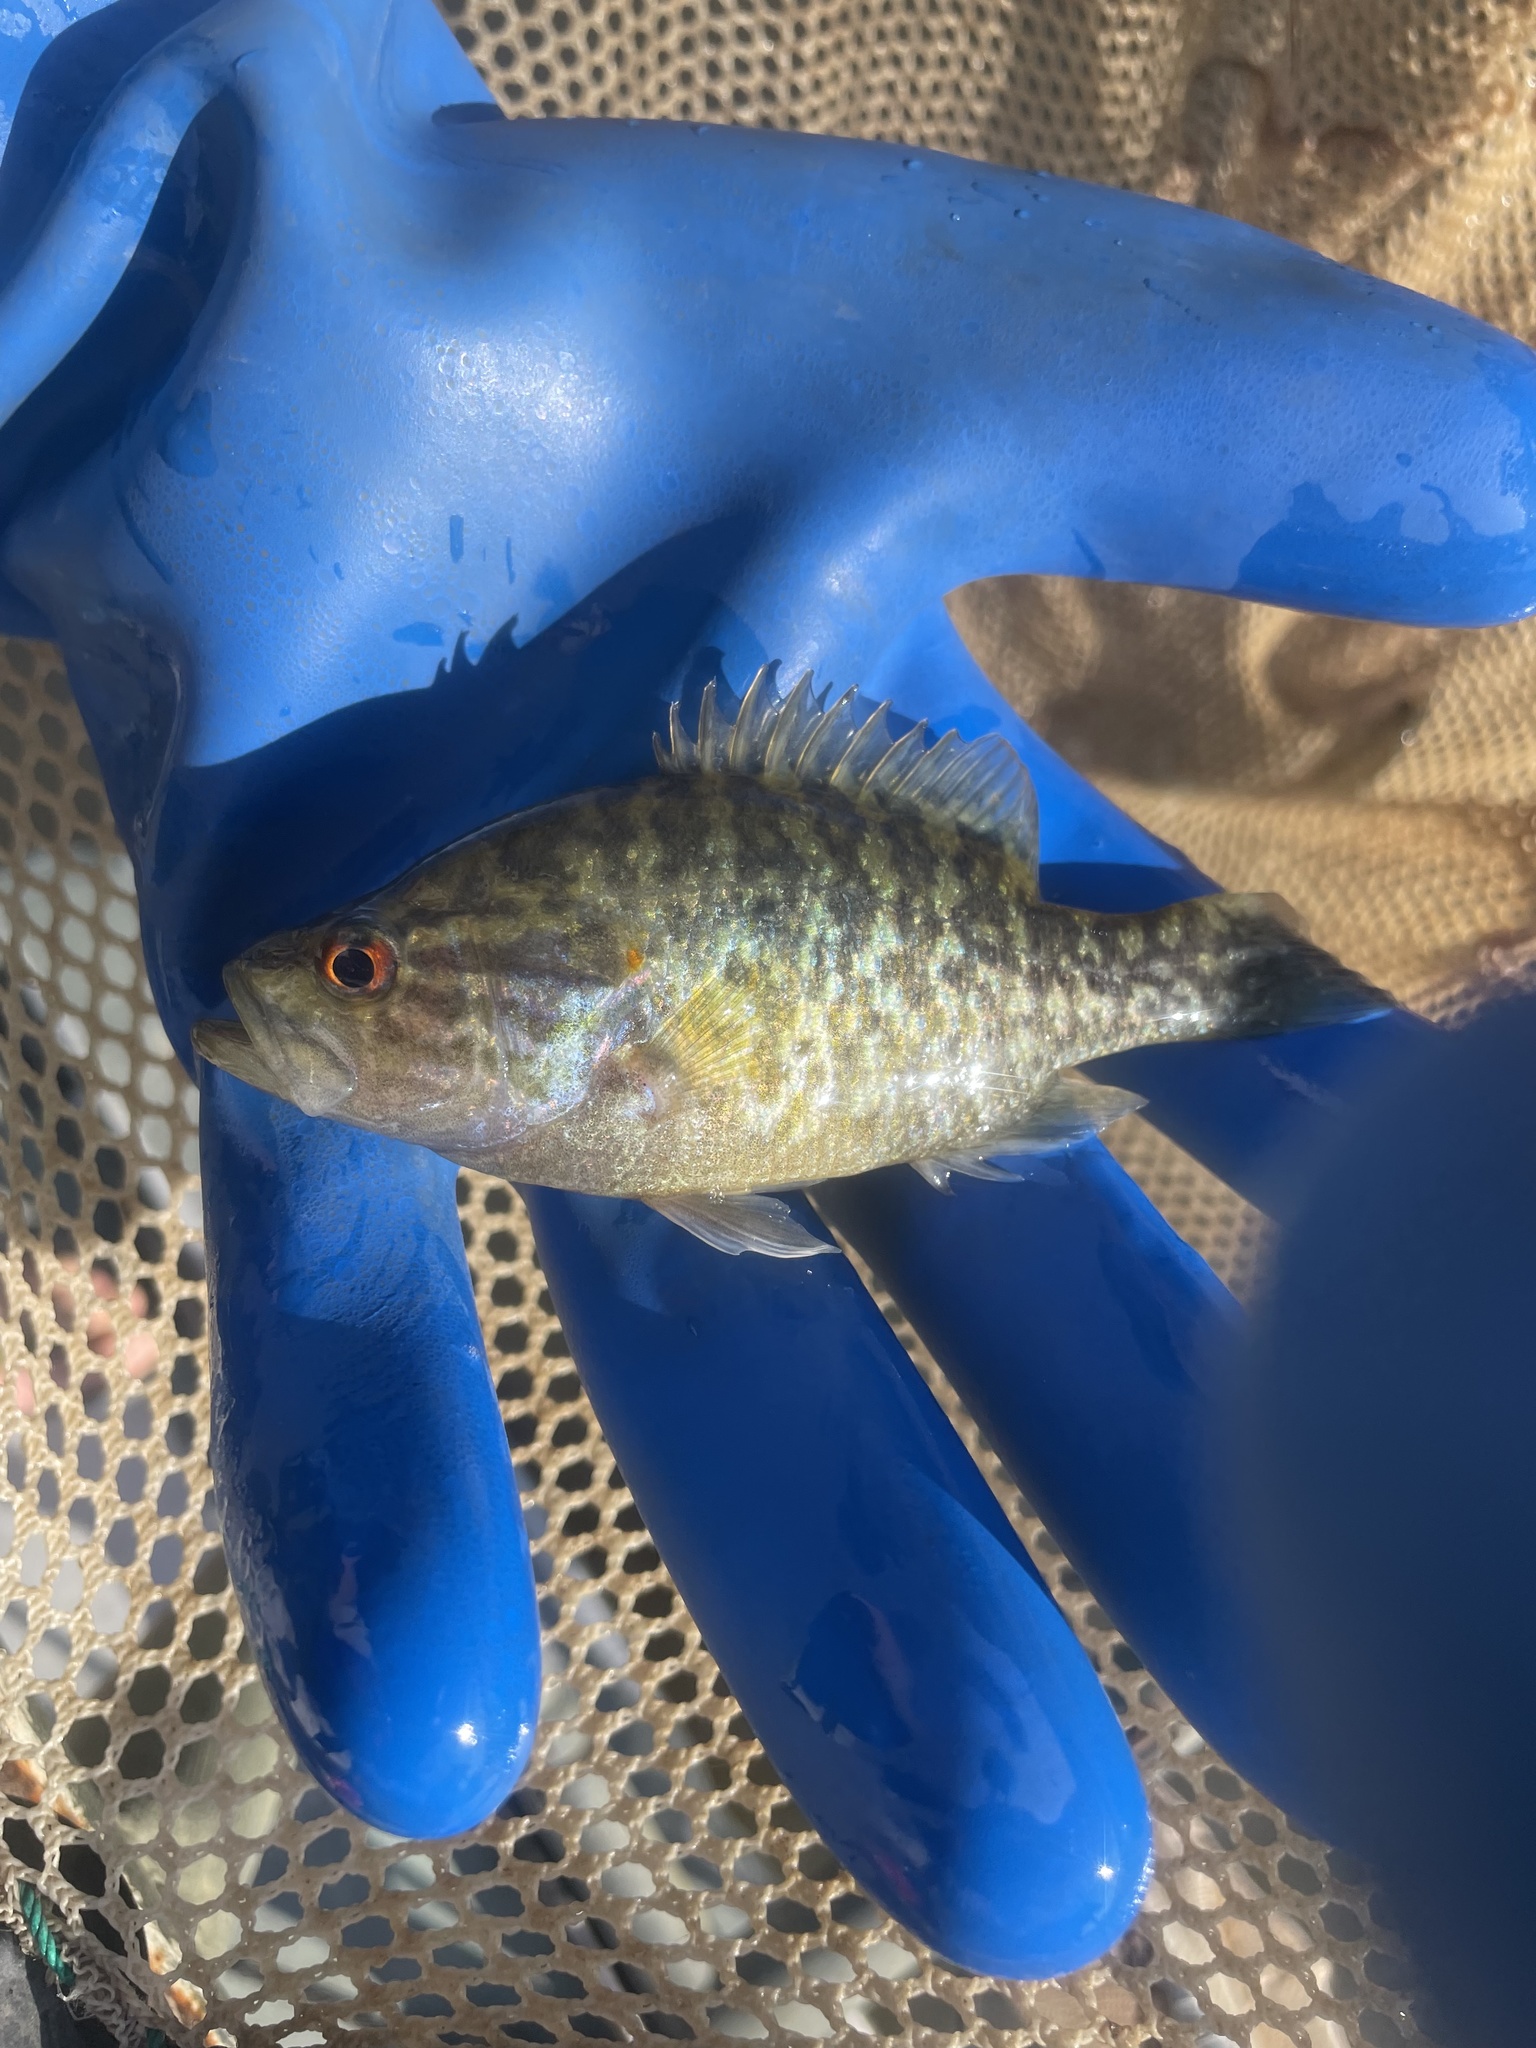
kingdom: Animalia
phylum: Chordata
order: Perciformes
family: Centrarchidae
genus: Lepomis
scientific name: Lepomis gulosus
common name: Warmouth
